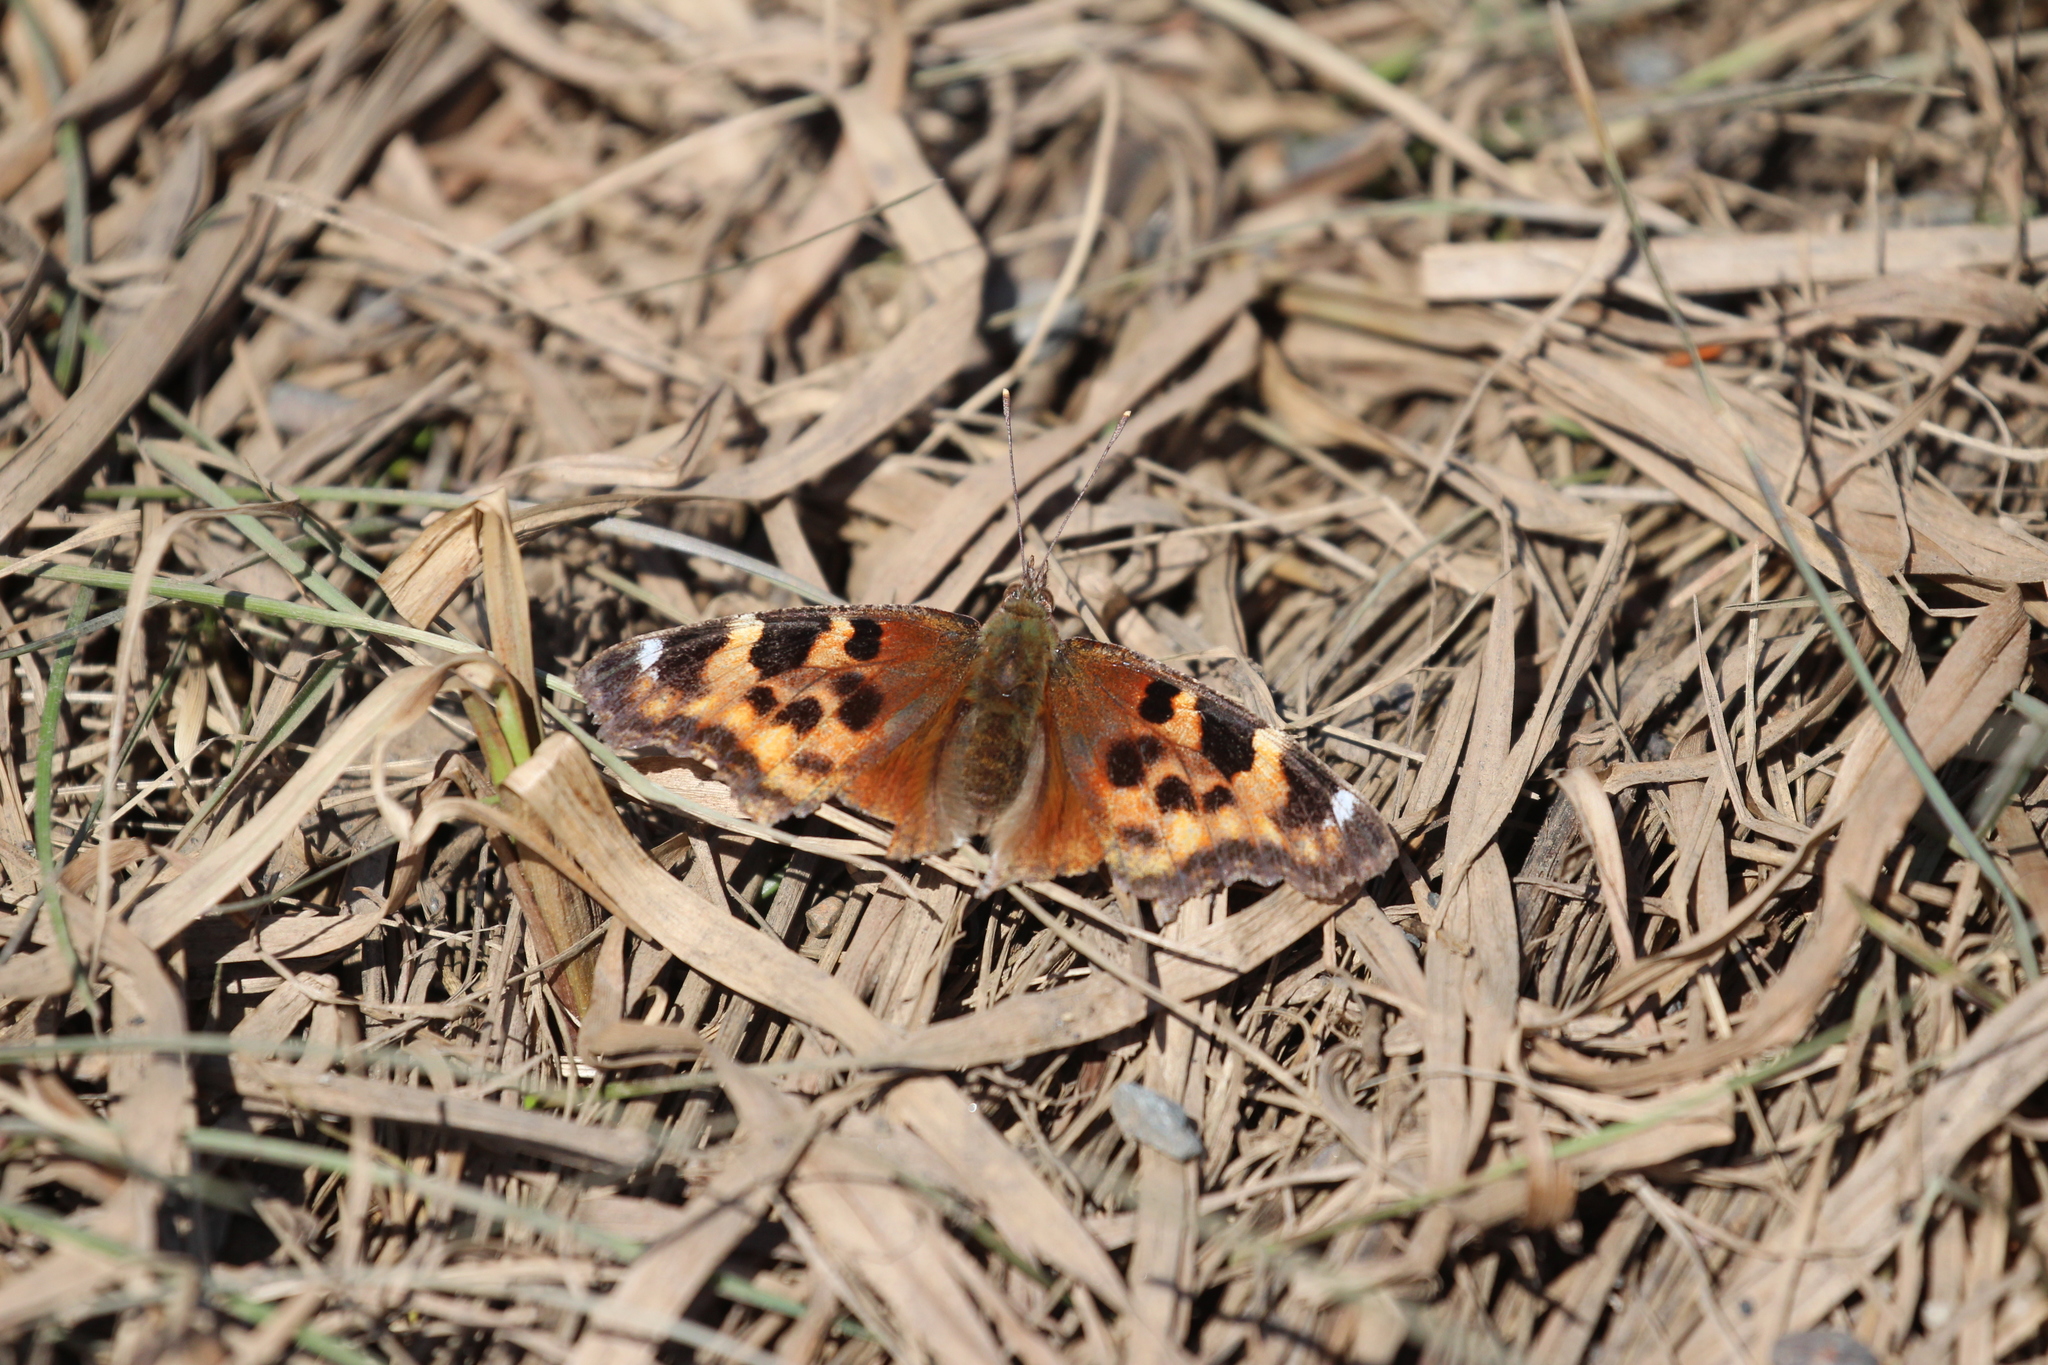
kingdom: Animalia
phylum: Arthropoda
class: Insecta
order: Lepidoptera
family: Nymphalidae
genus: Polygonia
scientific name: Polygonia vaualbum
